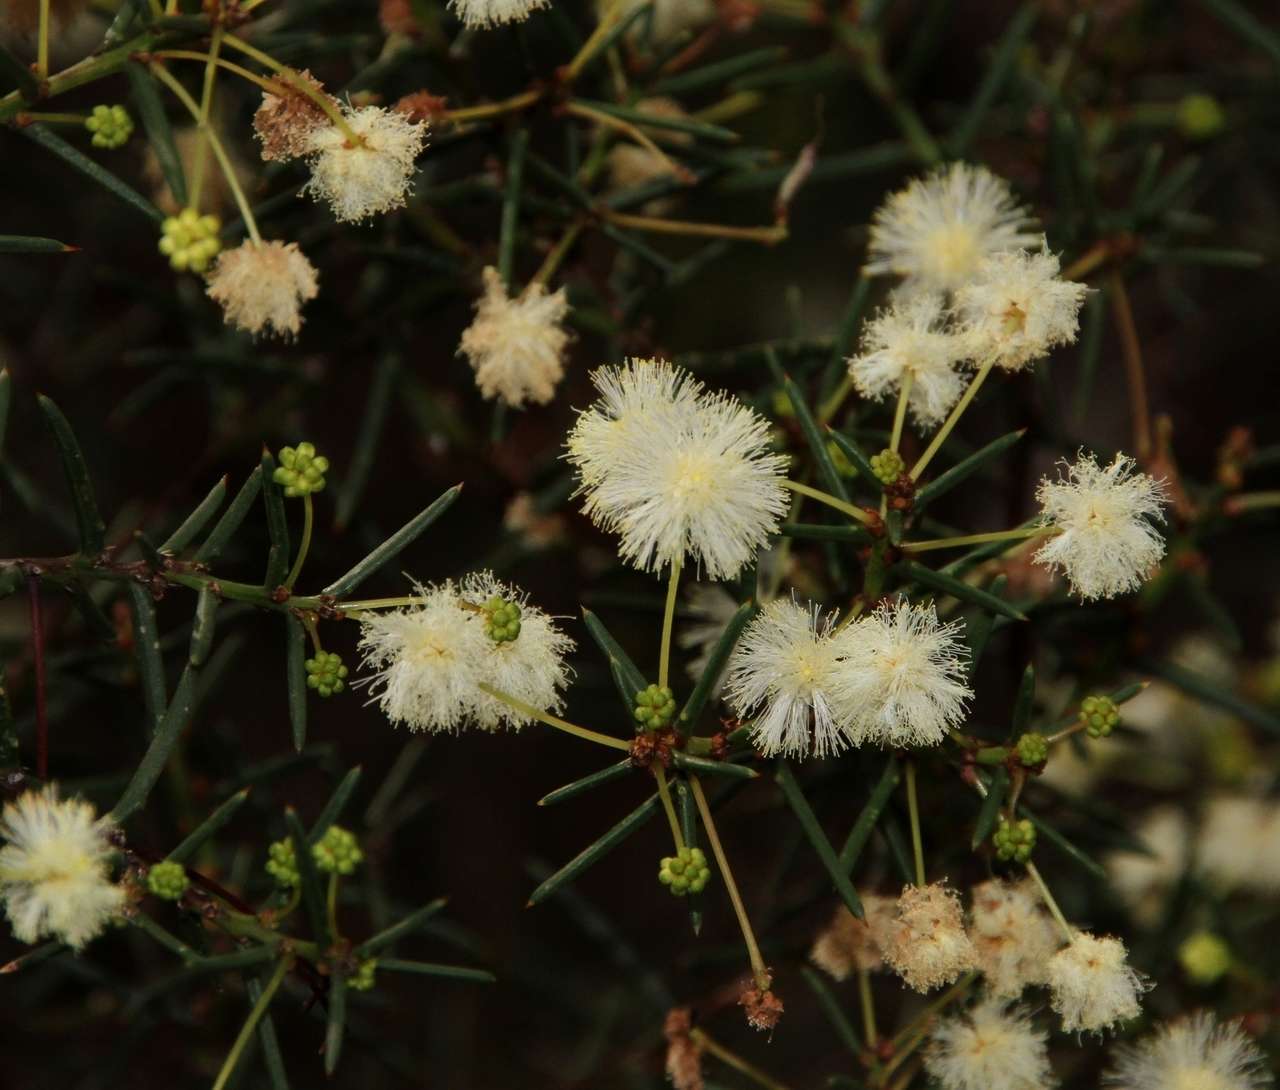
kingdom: Plantae
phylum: Tracheophyta
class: Magnoliopsida
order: Fabales
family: Fabaceae
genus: Acacia
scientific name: Acacia genistifolia
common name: Early wattle
